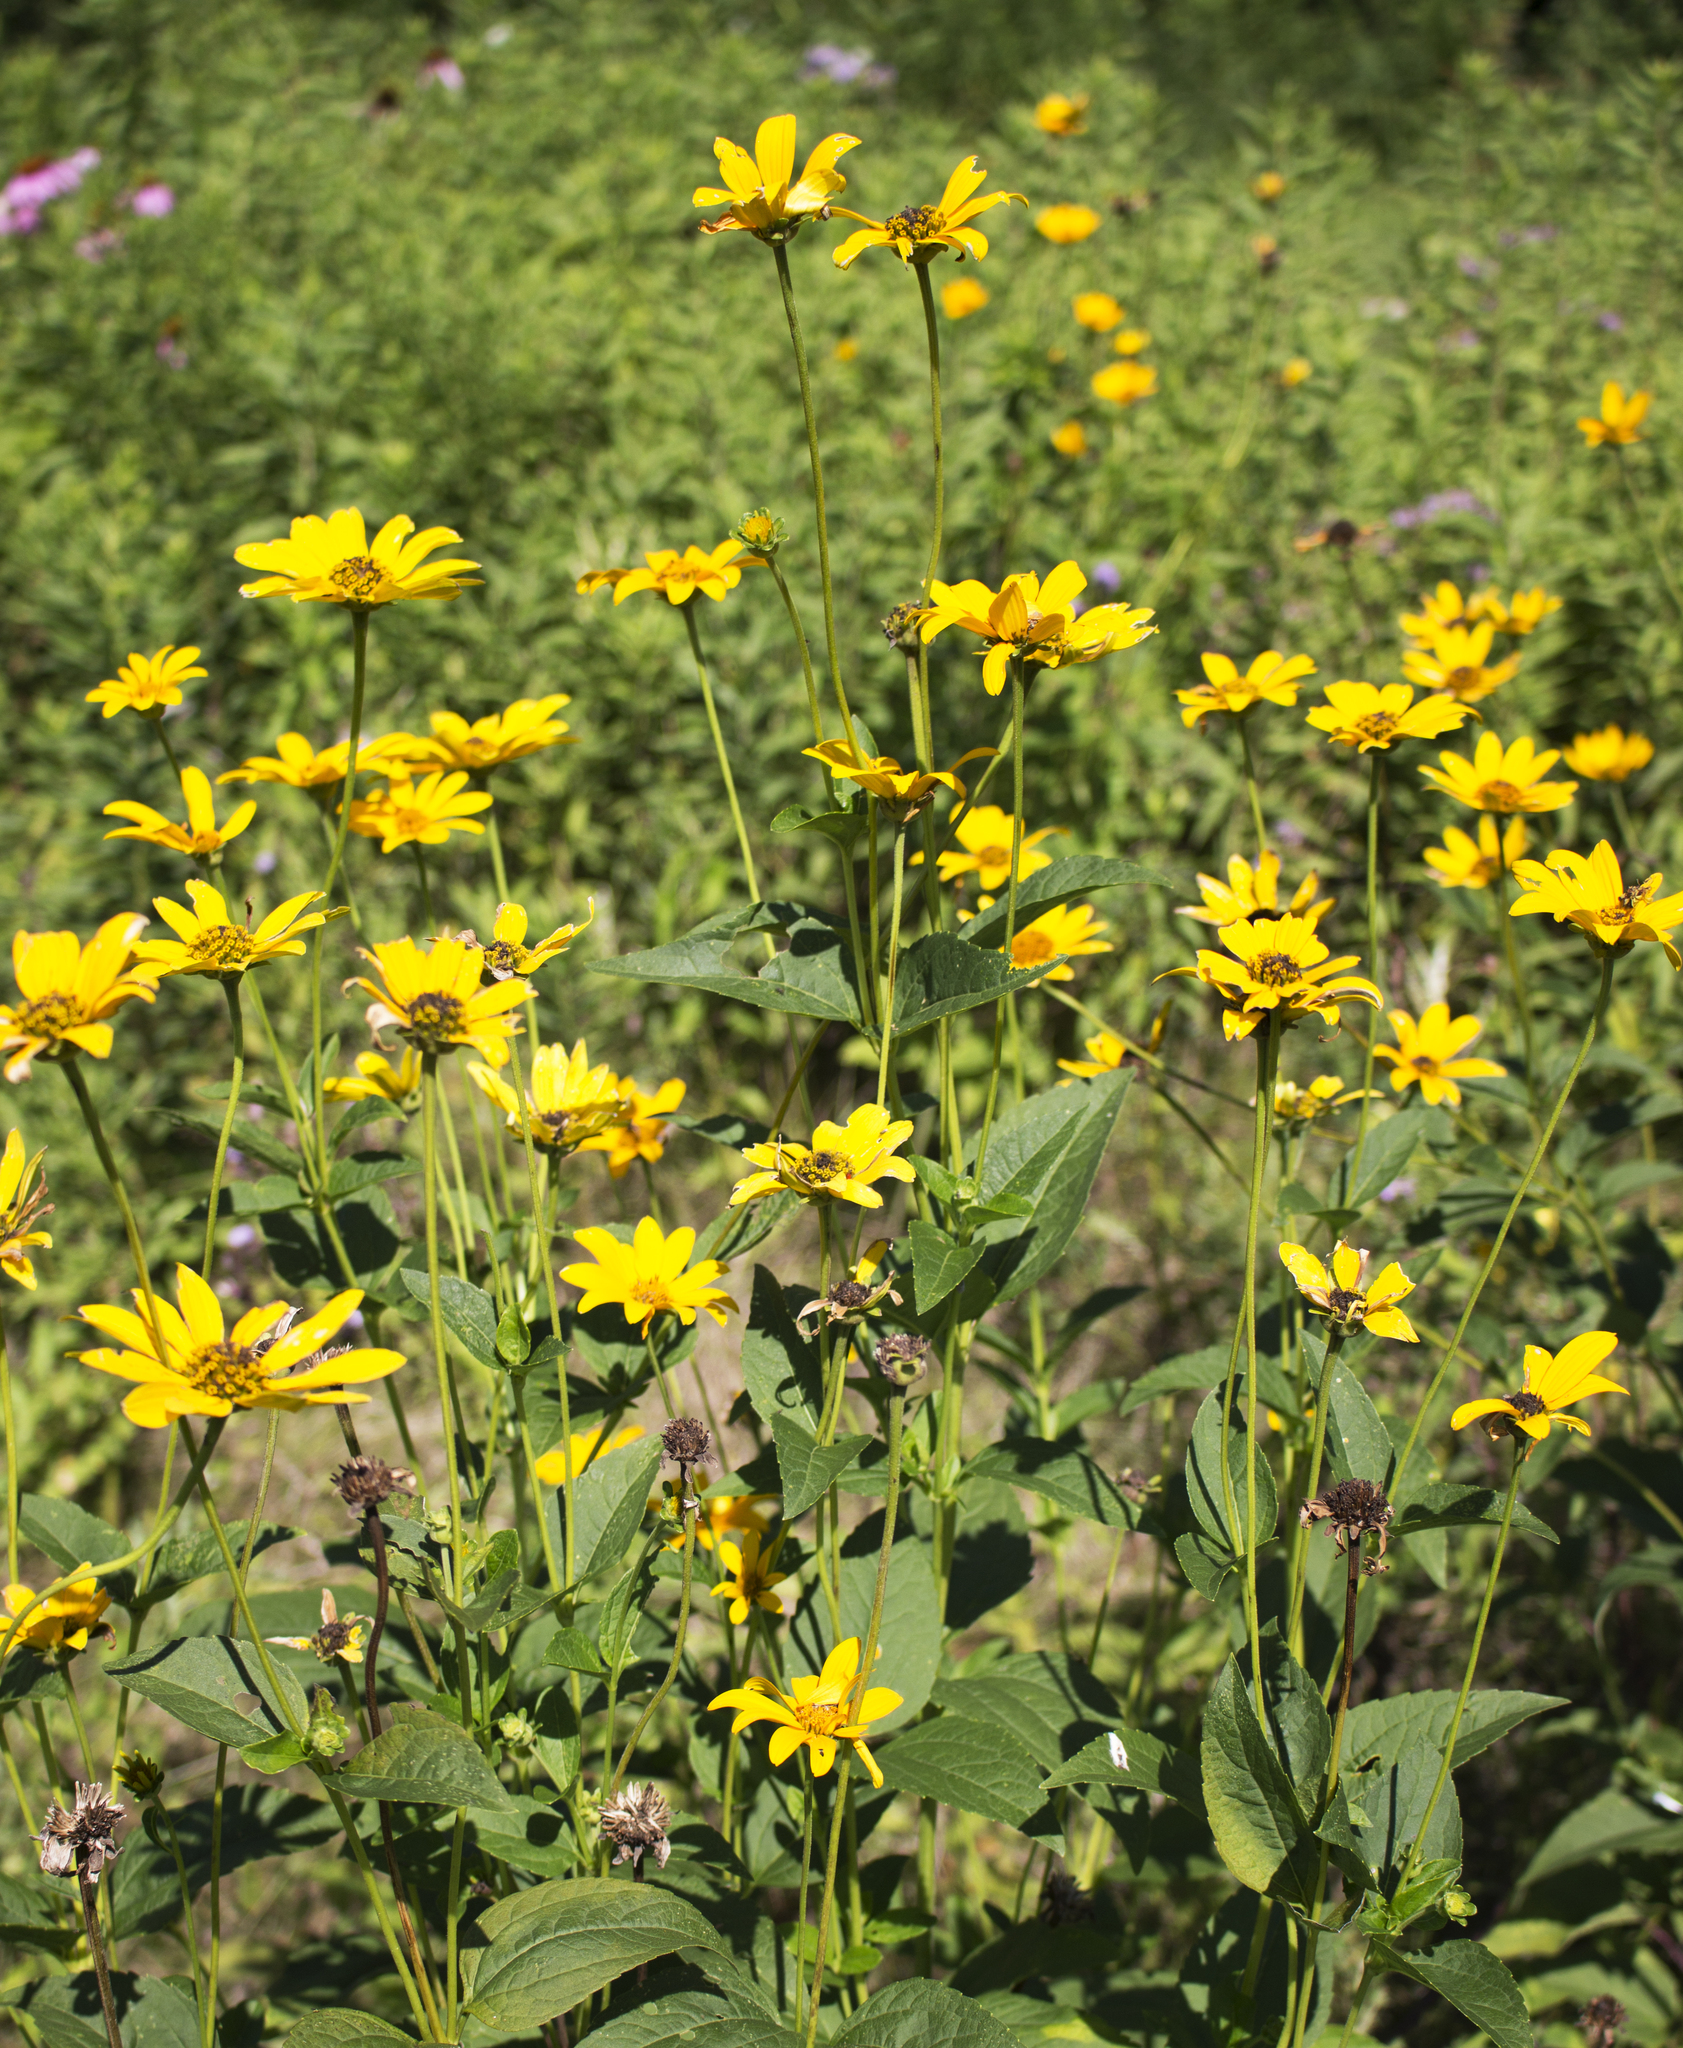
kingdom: Plantae
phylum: Tracheophyta
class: Magnoliopsida
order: Asterales
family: Asteraceae
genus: Heliopsis
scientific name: Heliopsis helianthoides
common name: False sunflower
